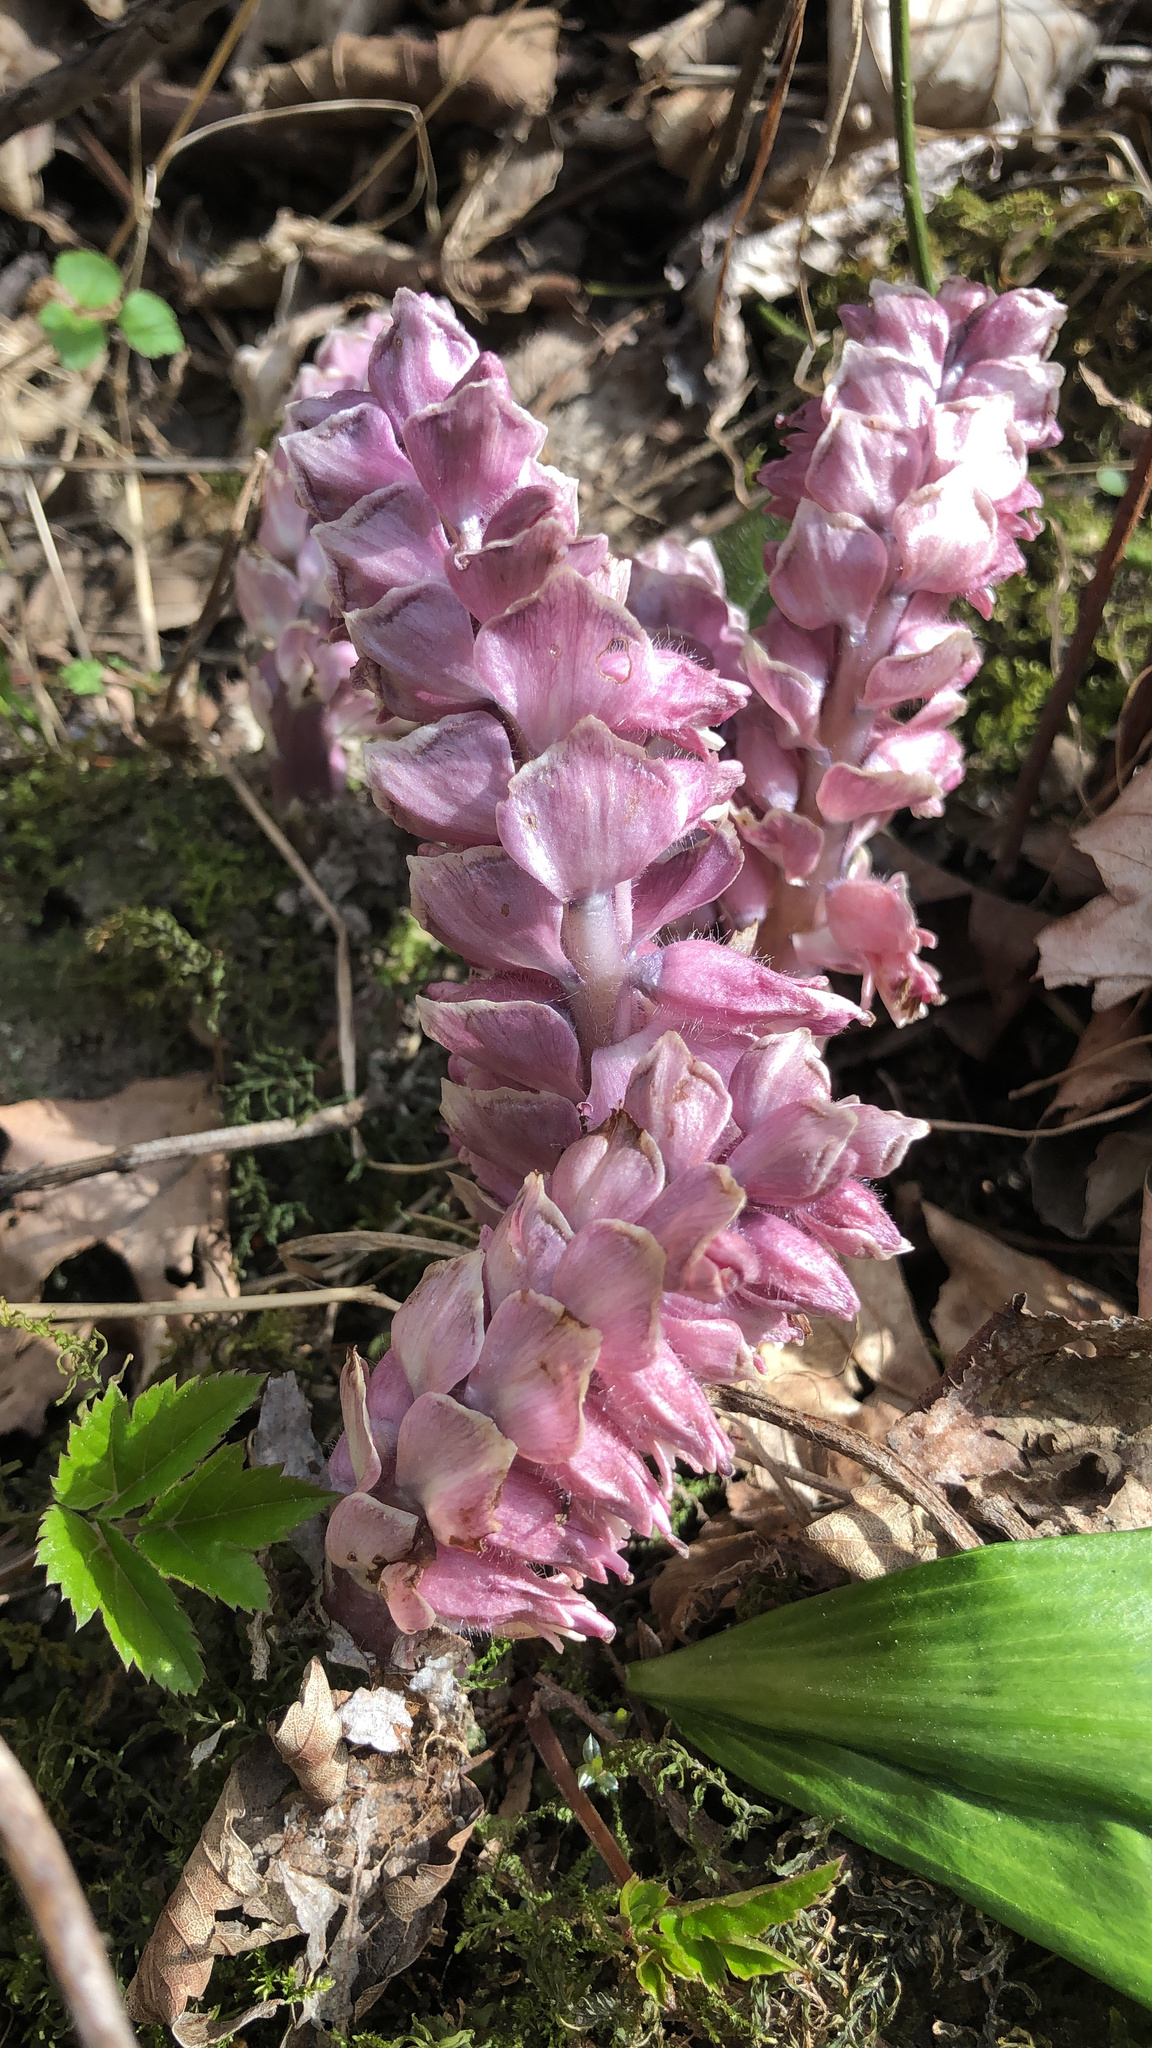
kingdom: Plantae
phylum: Tracheophyta
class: Magnoliopsida
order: Lamiales
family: Orobanchaceae
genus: Lathraea
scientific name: Lathraea squamaria
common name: Toothwort
